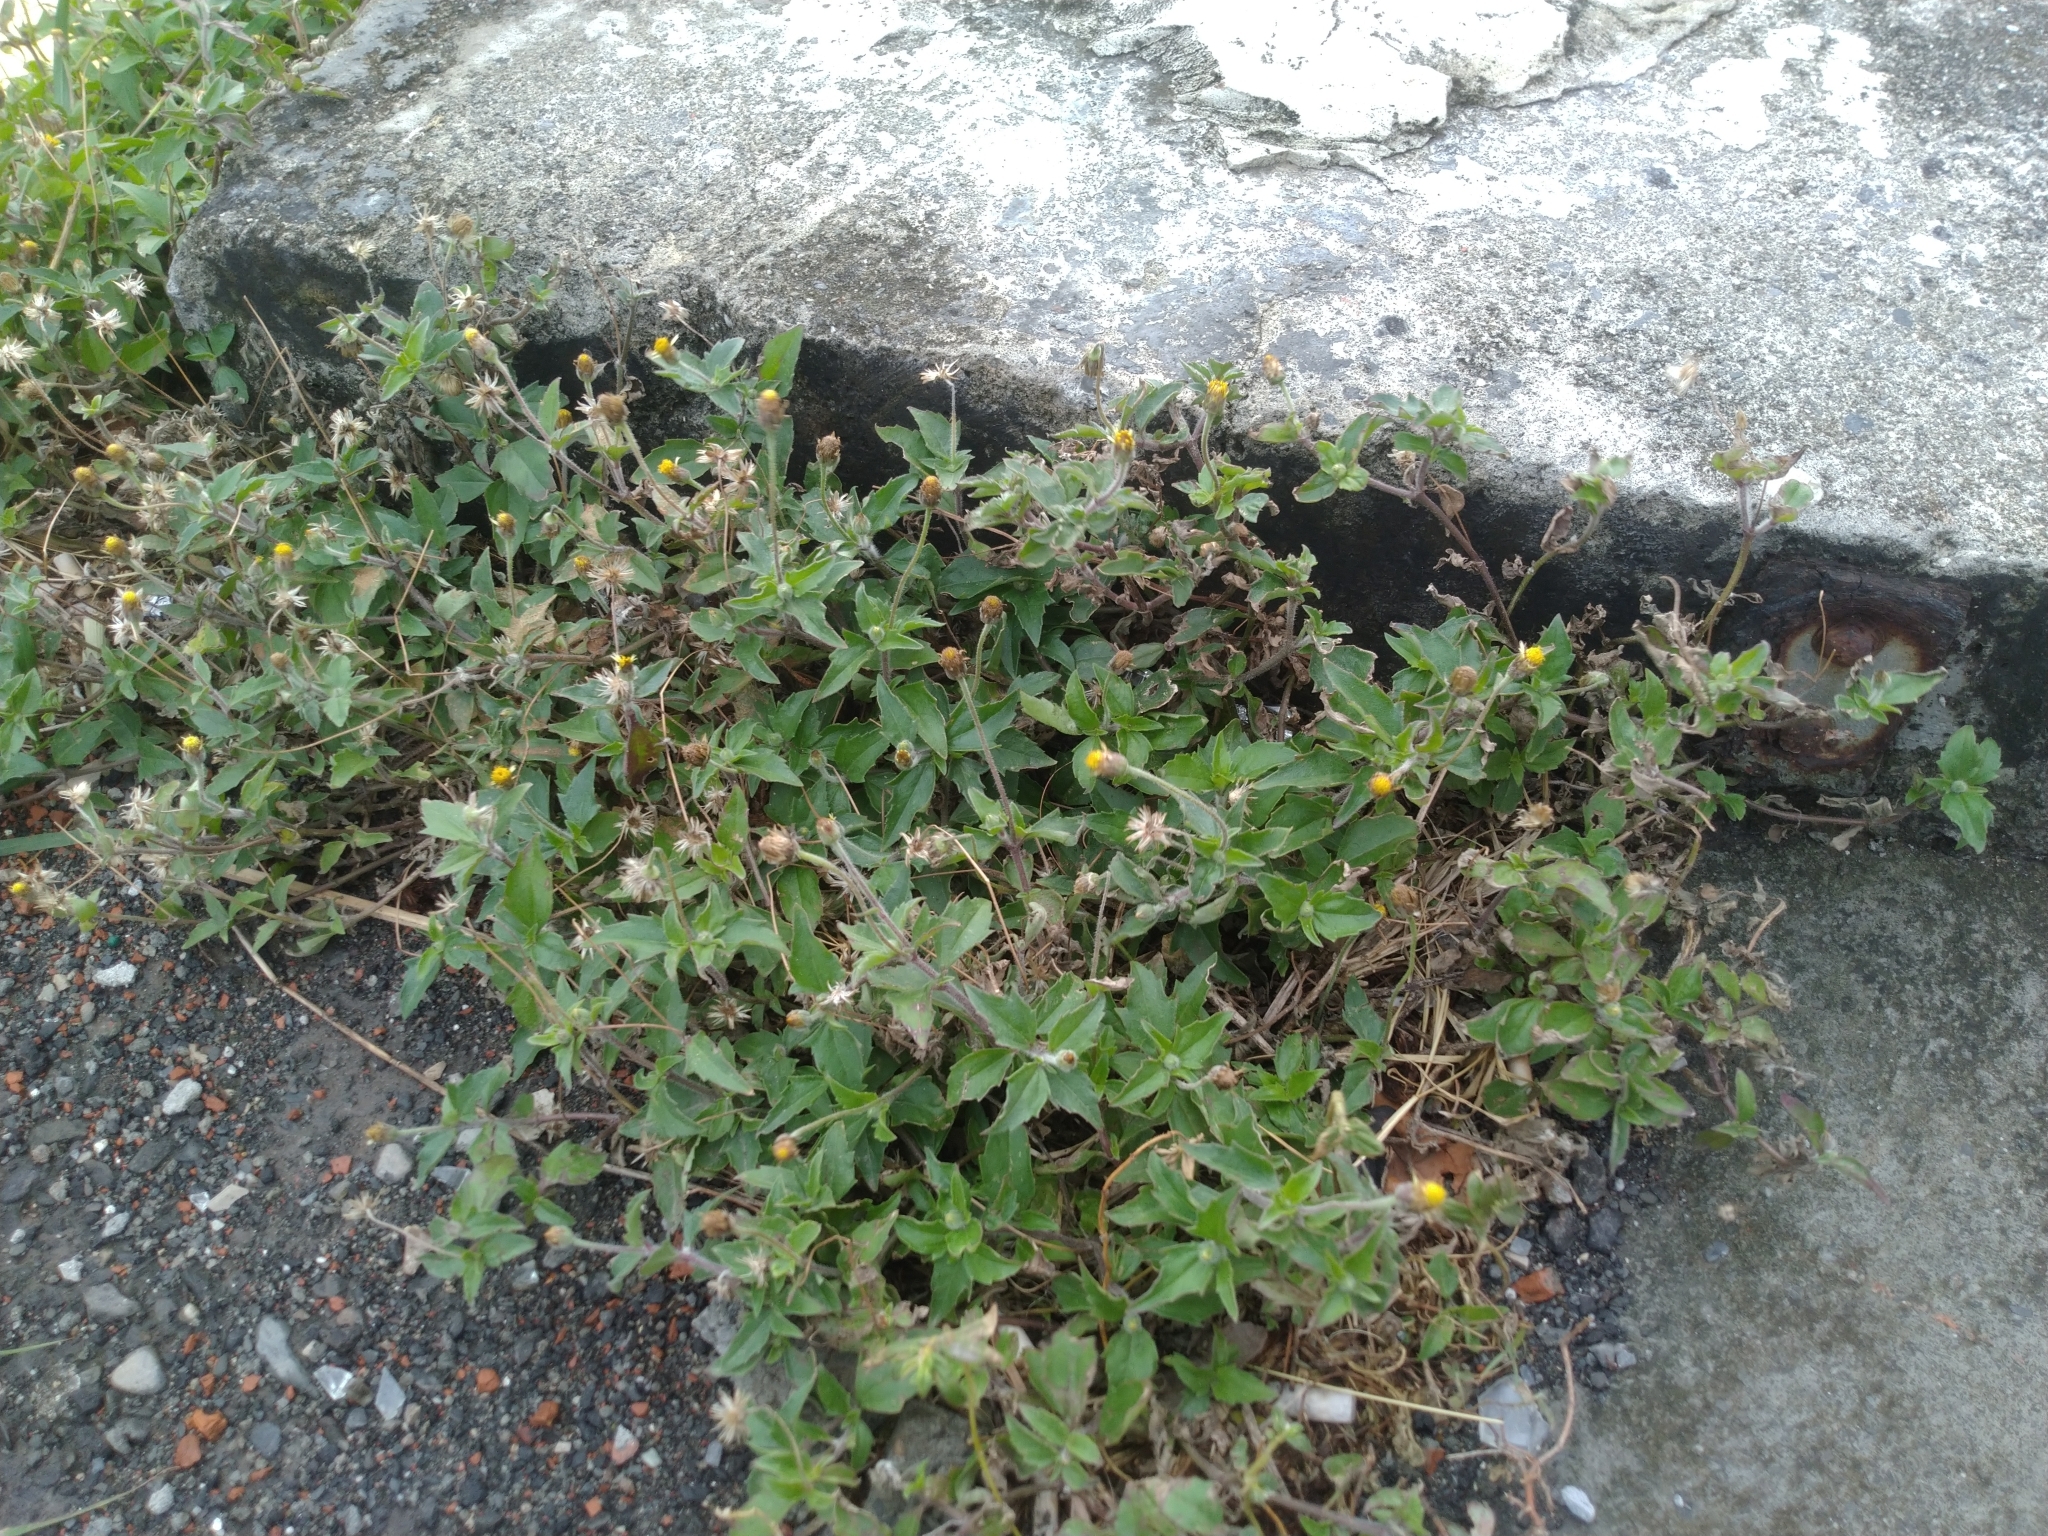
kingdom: Plantae
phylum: Tracheophyta
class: Magnoliopsida
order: Asterales
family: Asteraceae
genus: Tridax
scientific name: Tridax procumbens
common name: Coatbuttons
